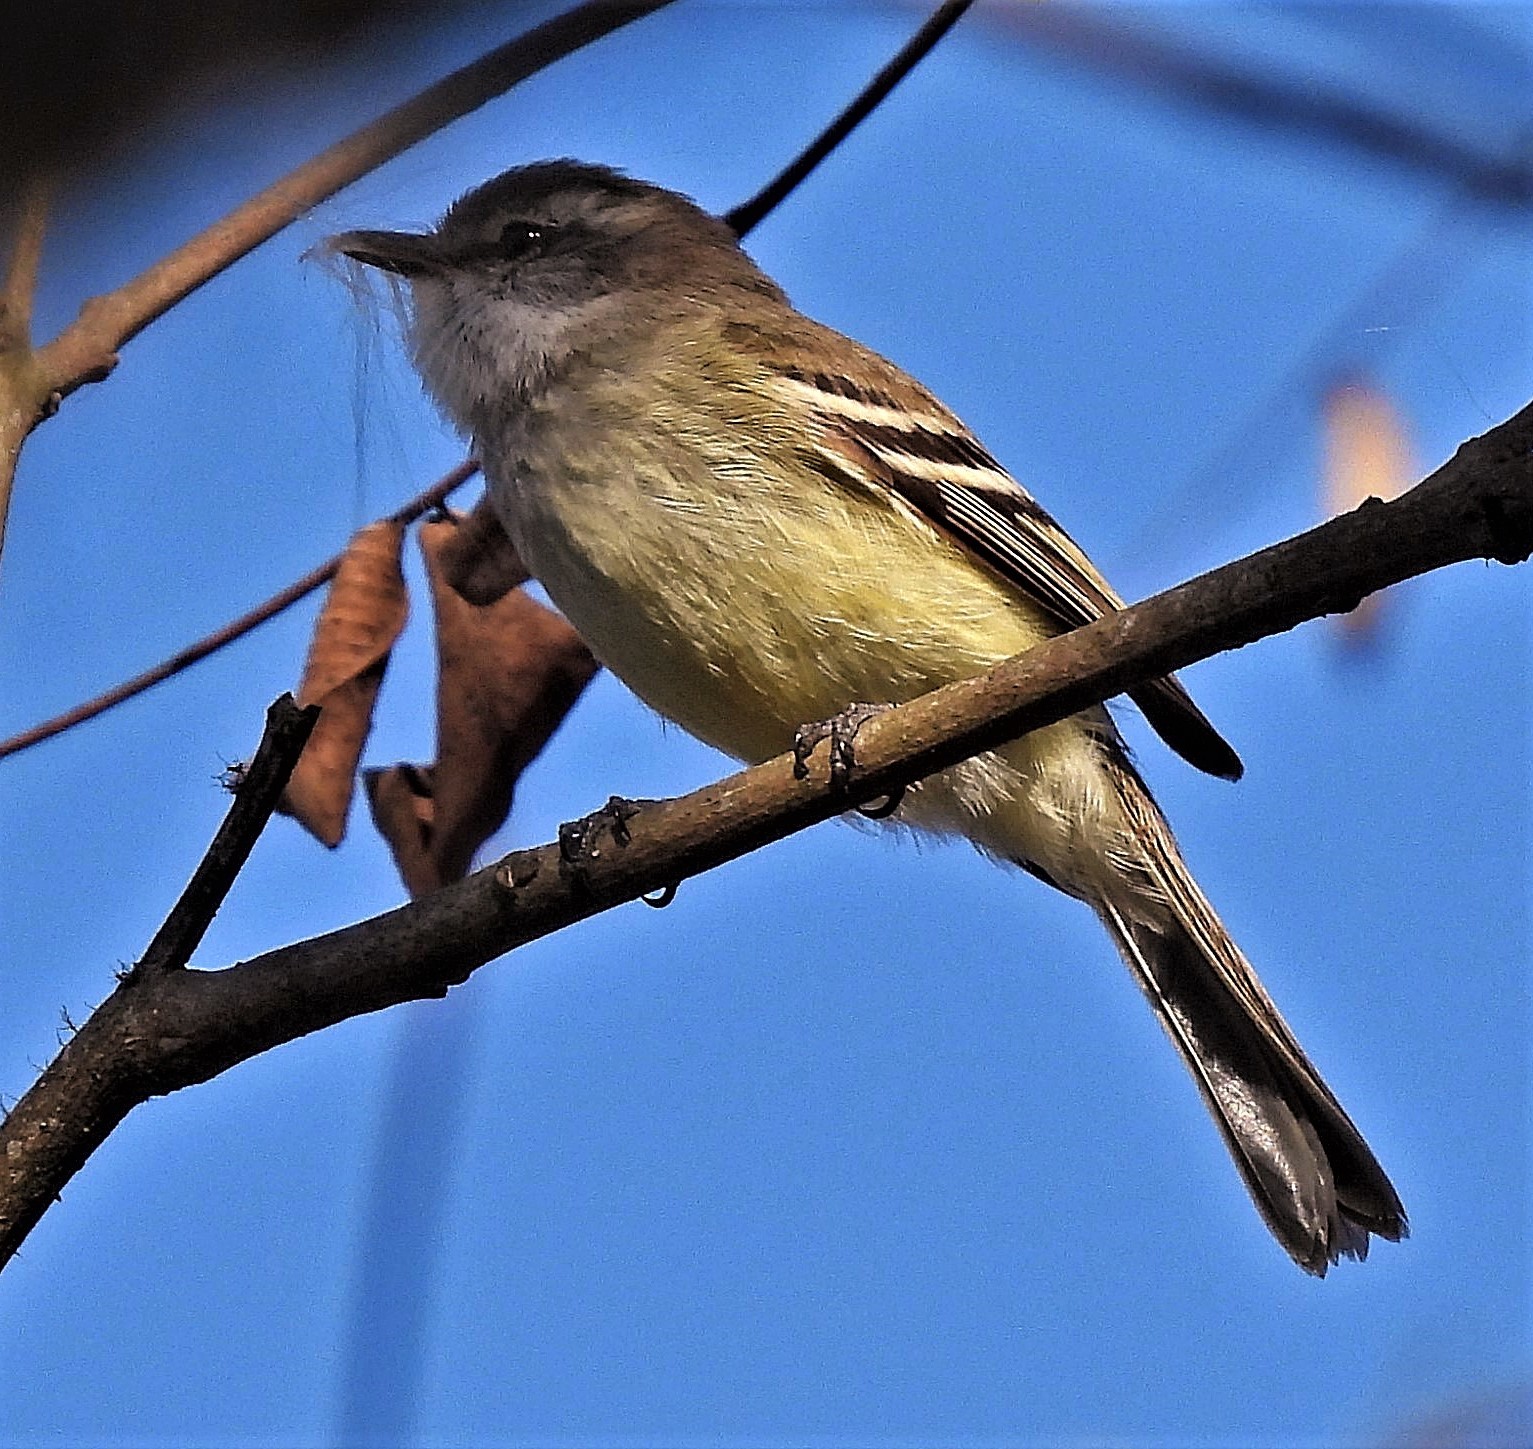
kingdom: Animalia
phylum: Chordata
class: Aves
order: Passeriformes
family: Tyrannidae
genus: Mecocerculus
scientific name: Mecocerculus leucophrys
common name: White-throated tyrannulet
